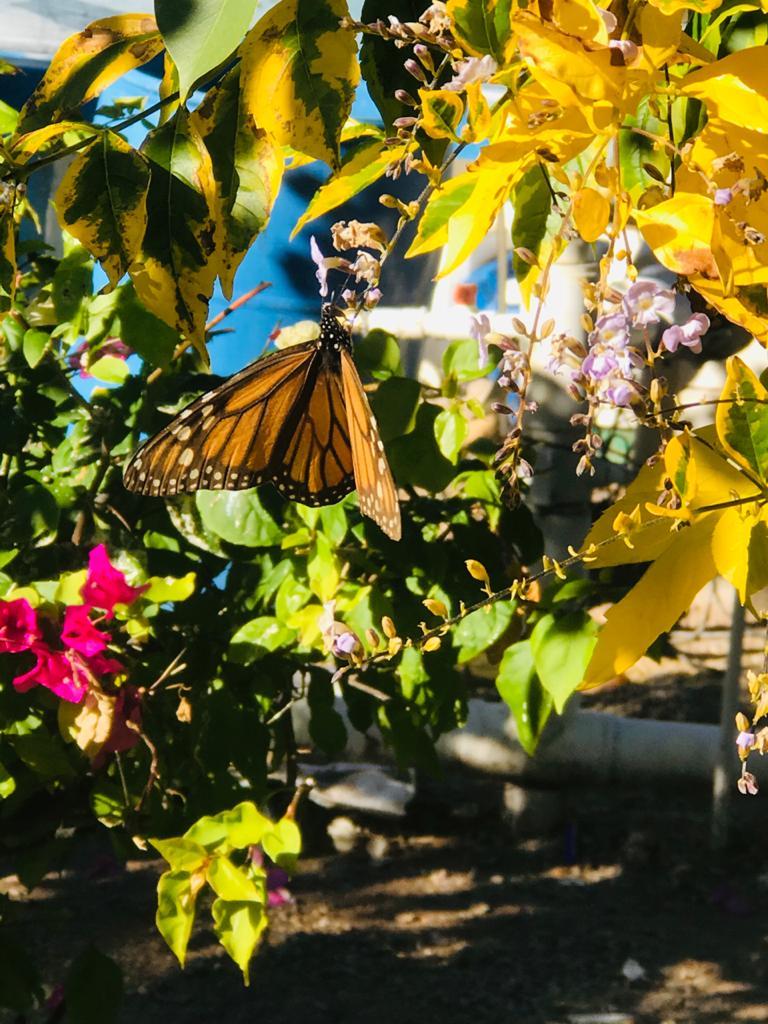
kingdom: Animalia
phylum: Arthropoda
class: Insecta
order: Lepidoptera
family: Nymphalidae
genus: Danaus
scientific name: Danaus plexippus
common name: Monarch
